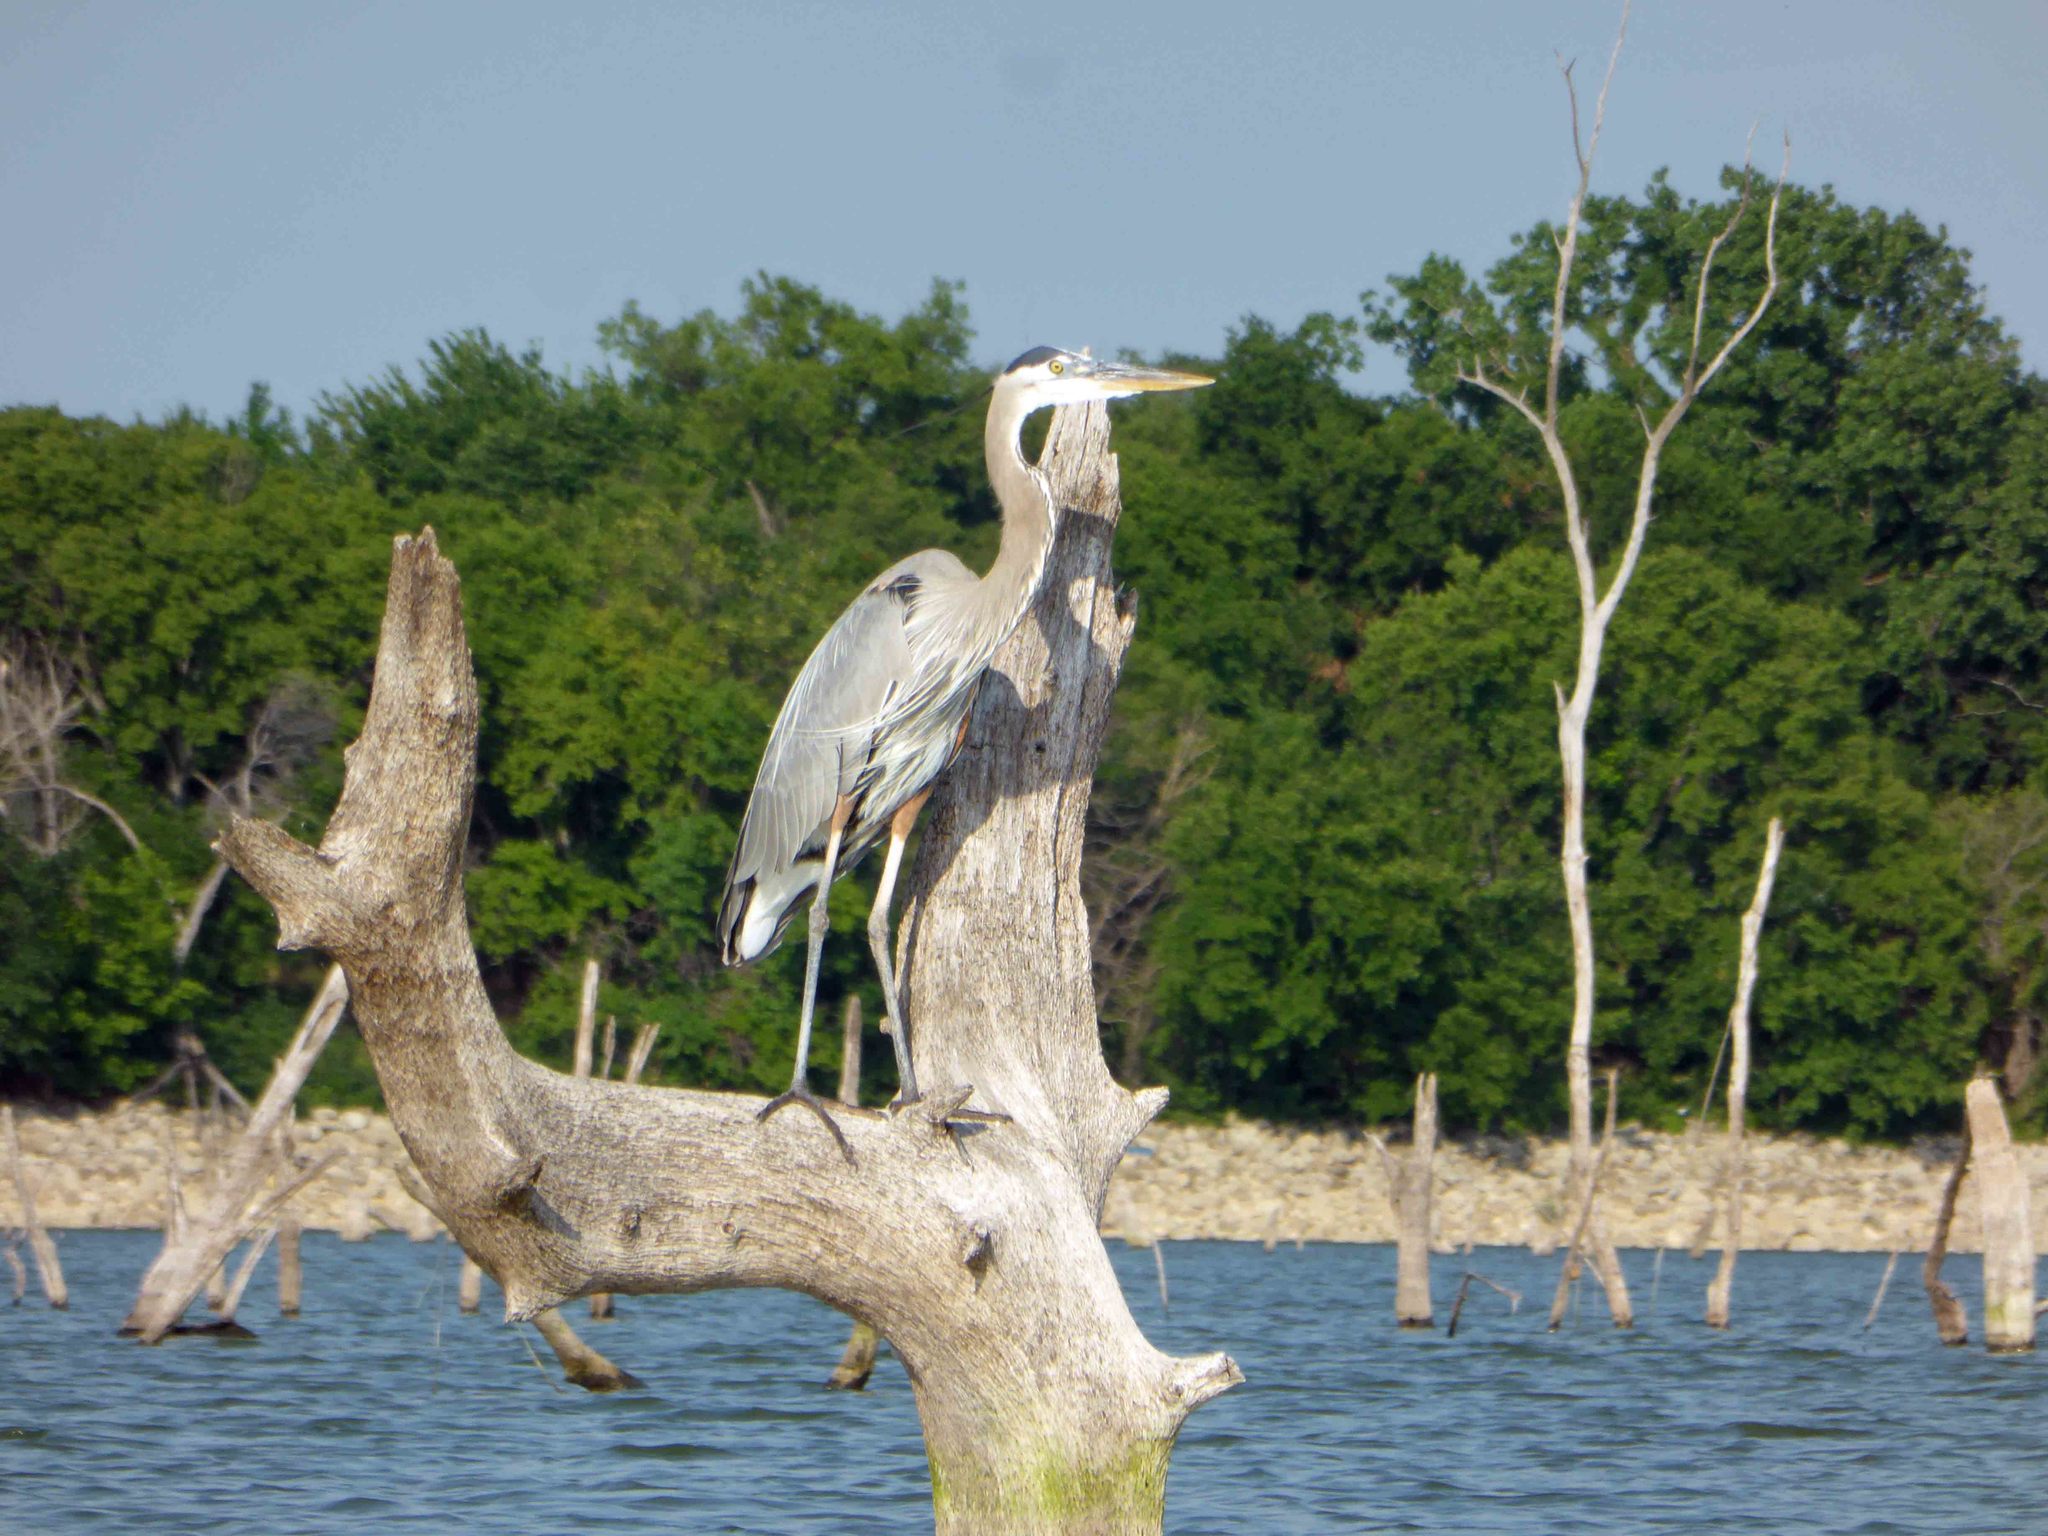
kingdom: Animalia
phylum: Chordata
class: Aves
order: Pelecaniformes
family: Ardeidae
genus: Ardea
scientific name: Ardea herodias
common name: Great blue heron
